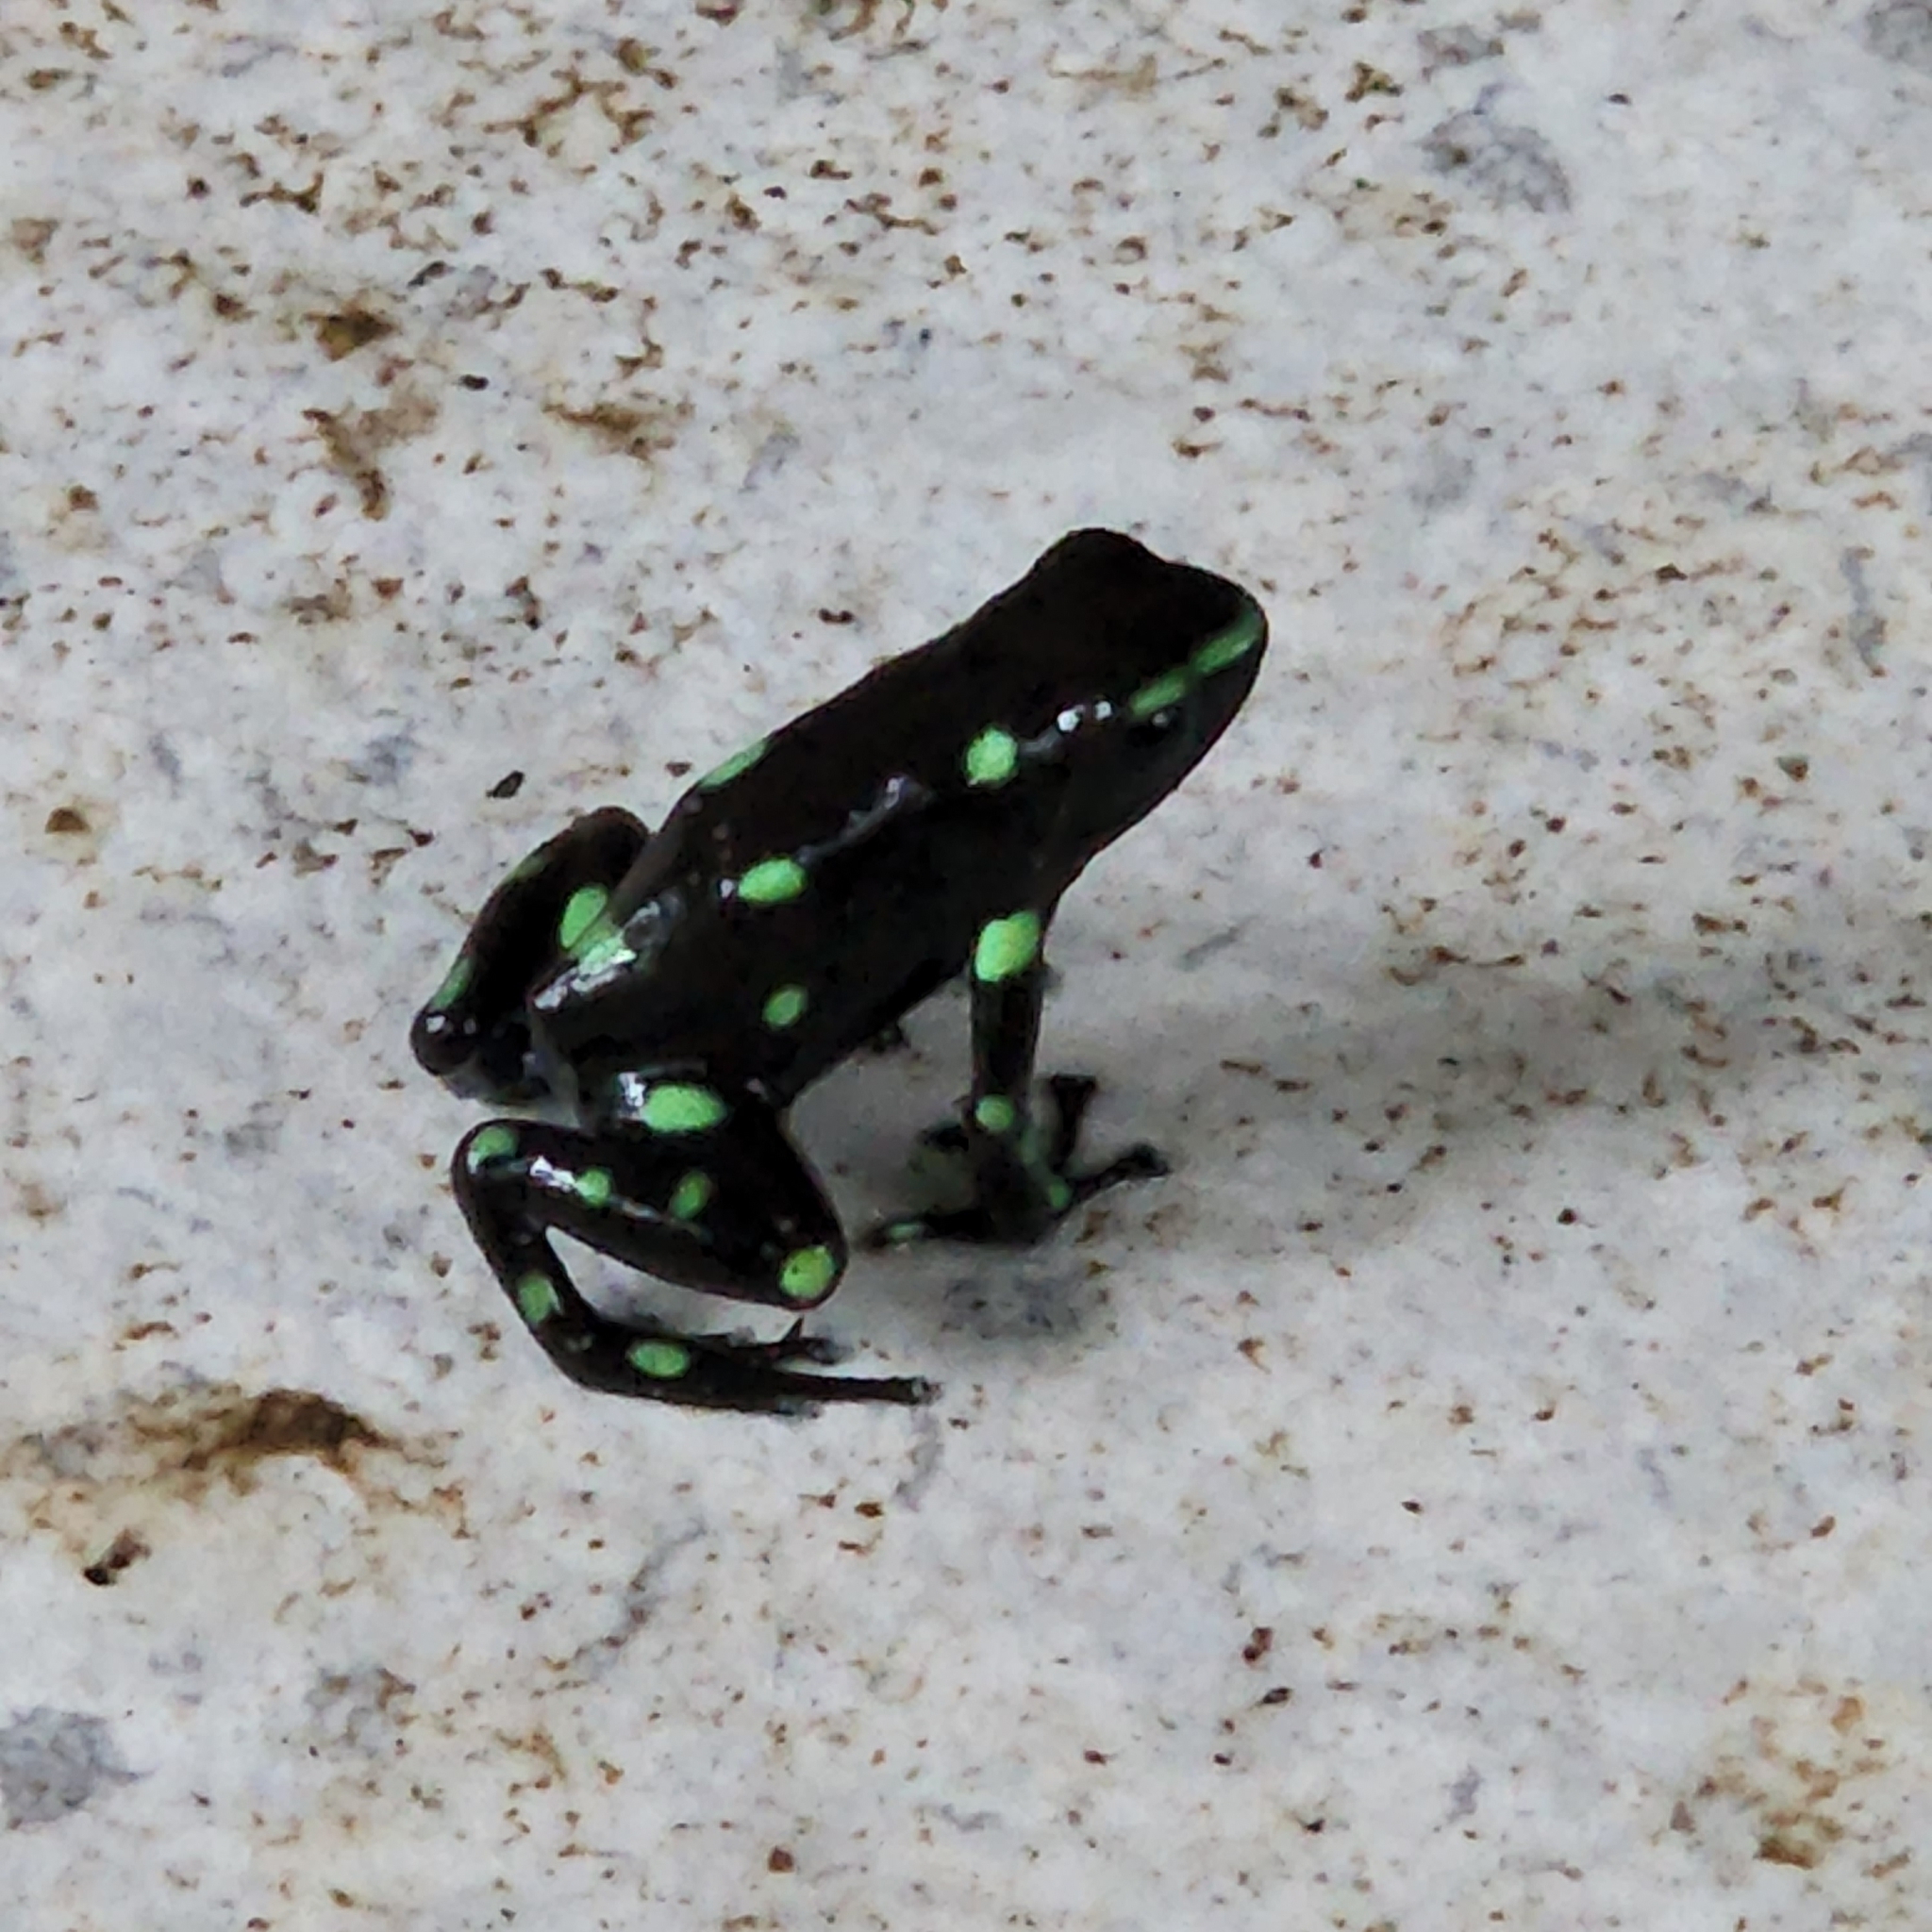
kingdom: Animalia
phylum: Chordata
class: Amphibia
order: Anura
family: Dendrobatidae
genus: Dendrobates
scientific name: Dendrobates auratus
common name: Green and black poison dart frog
